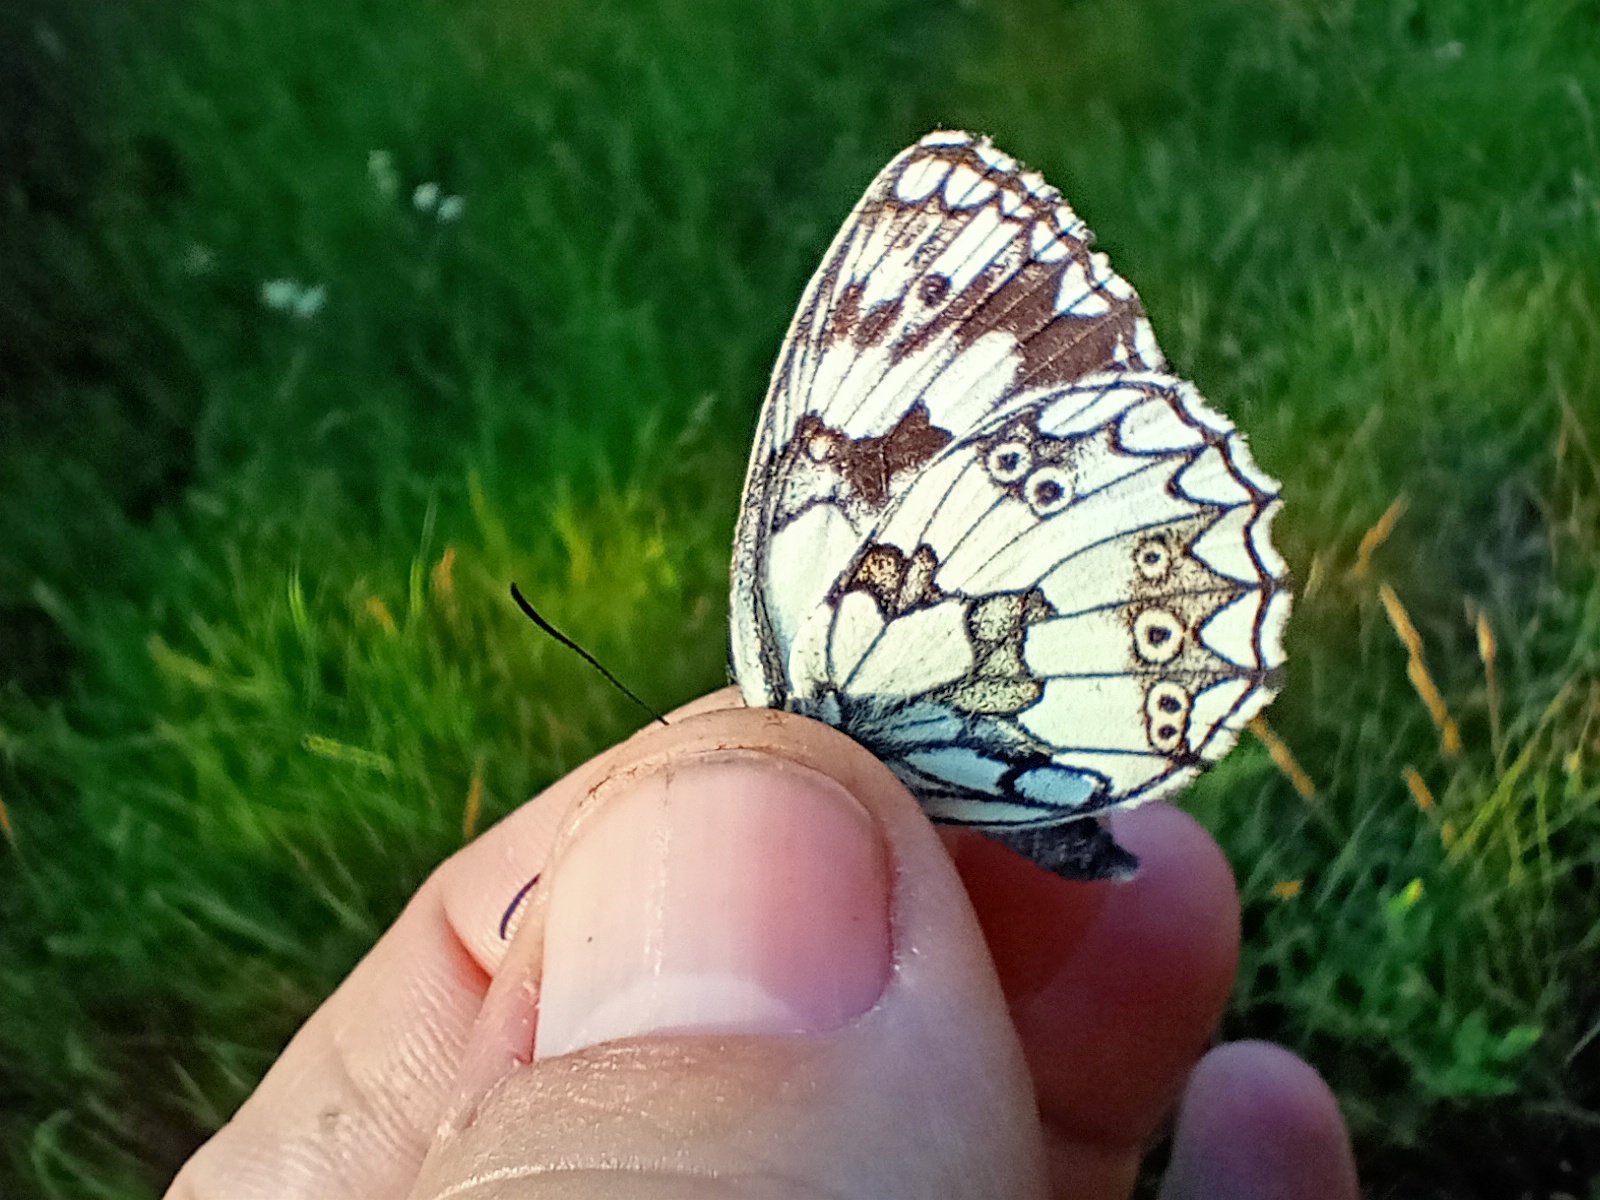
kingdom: Animalia
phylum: Arthropoda
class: Insecta
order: Lepidoptera
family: Nymphalidae
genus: Melanargia
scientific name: Melanargia galathea
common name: Marbled white
